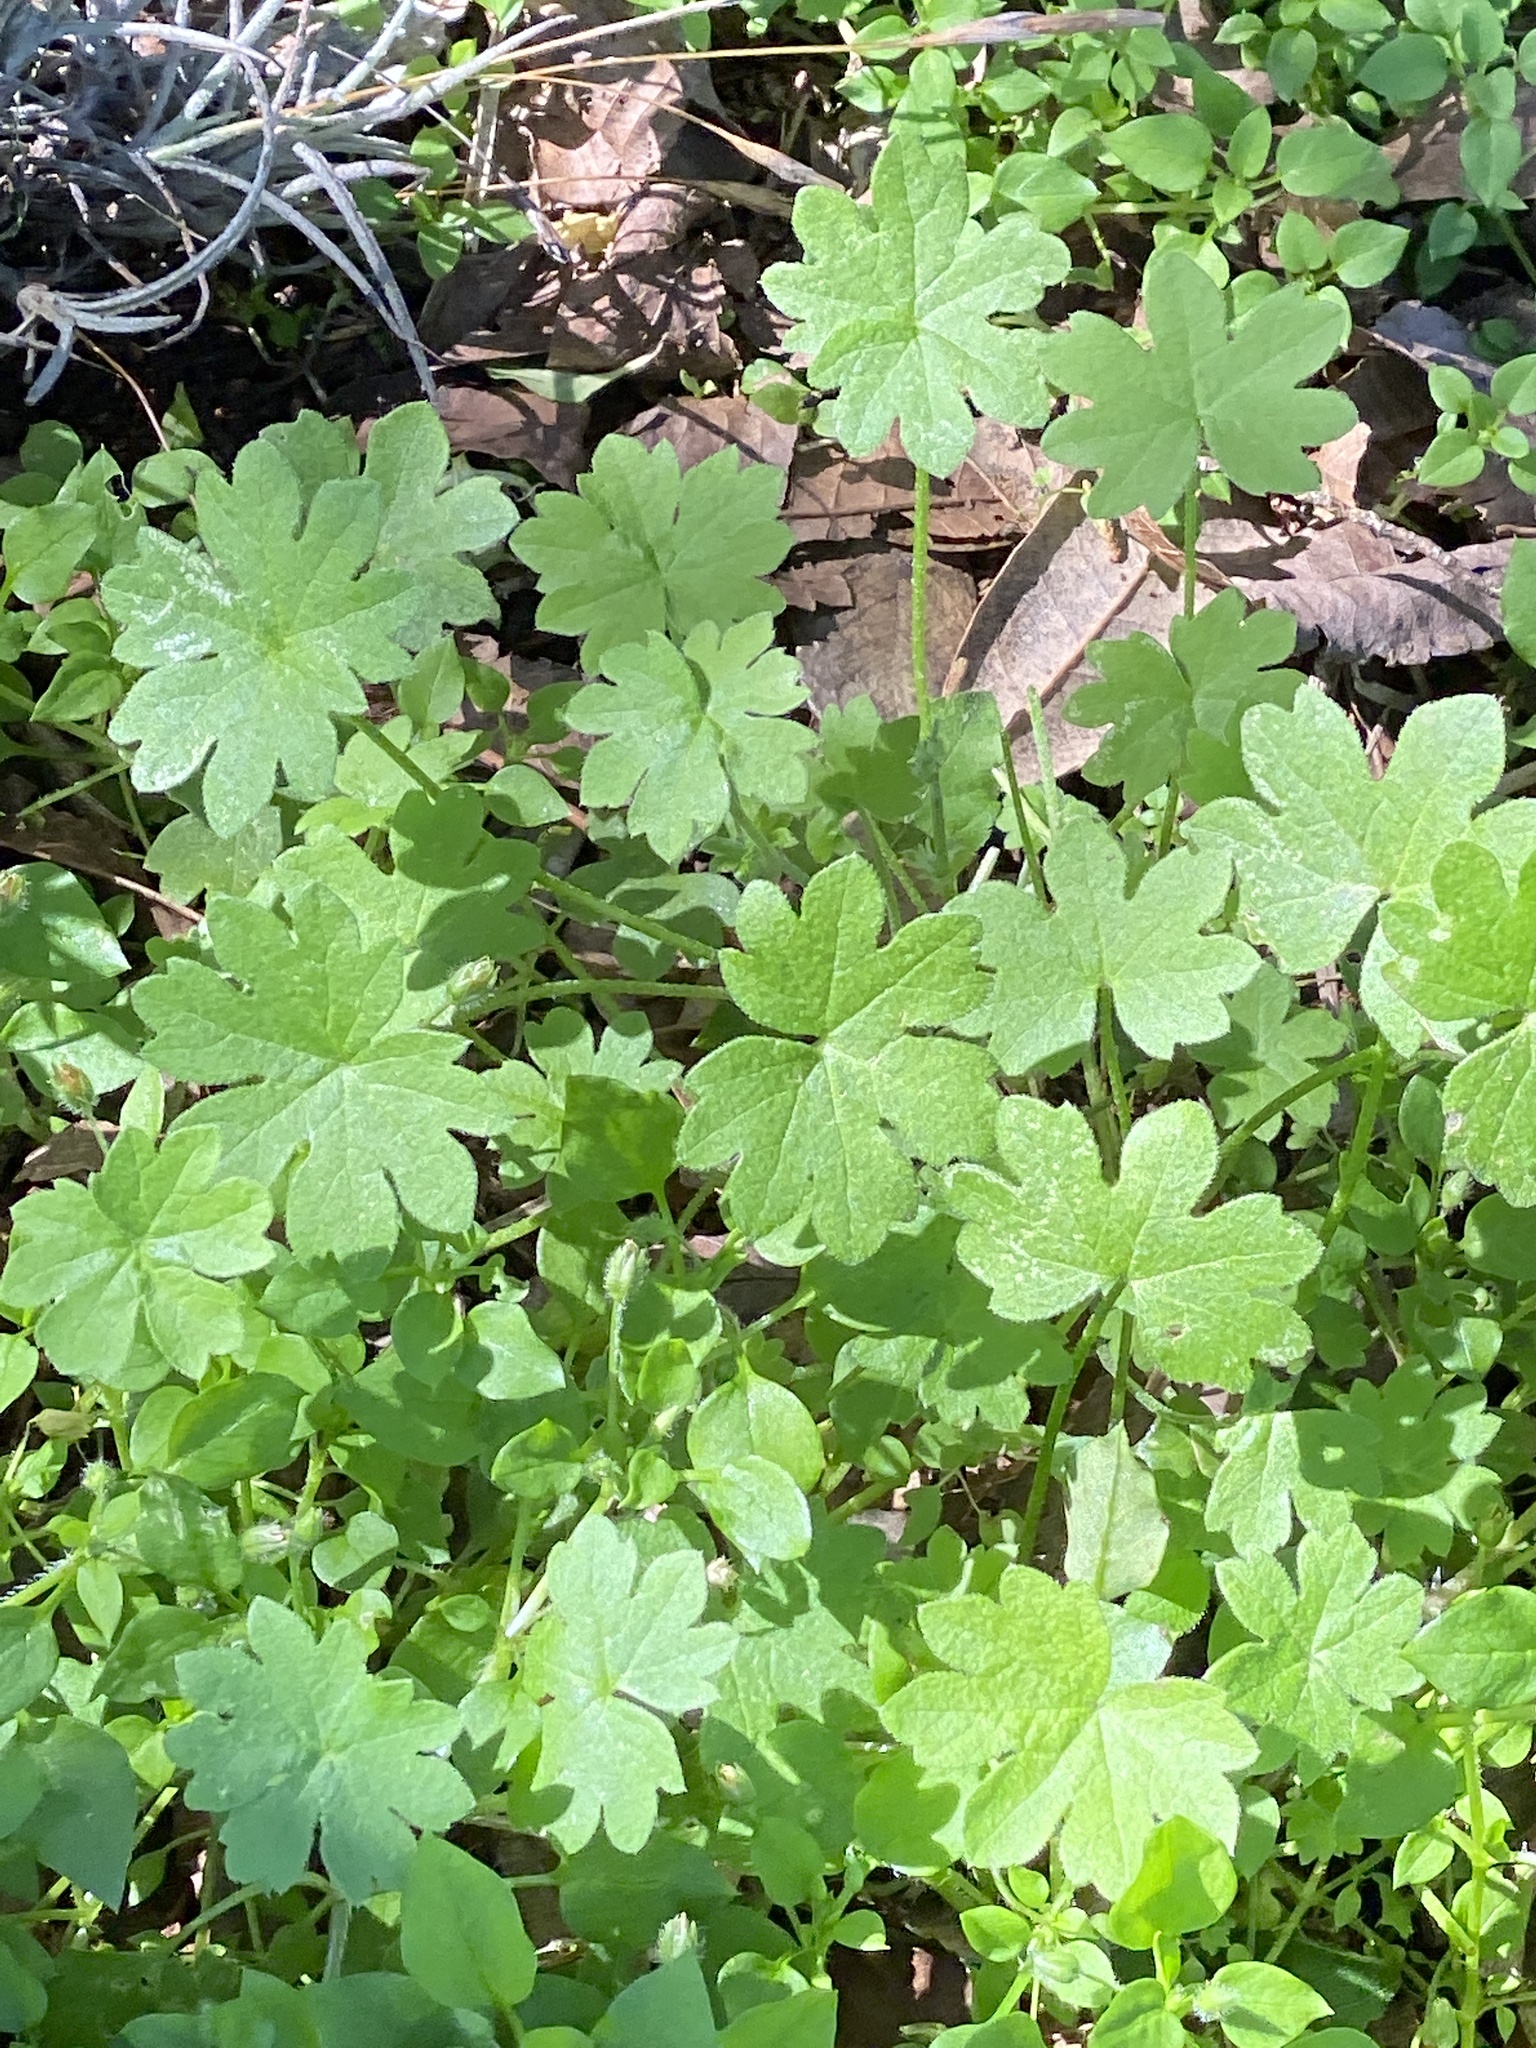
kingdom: Plantae
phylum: Tracheophyta
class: Magnoliopsida
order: Apiales
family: Apiaceae
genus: Bowlesia
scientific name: Bowlesia incana
